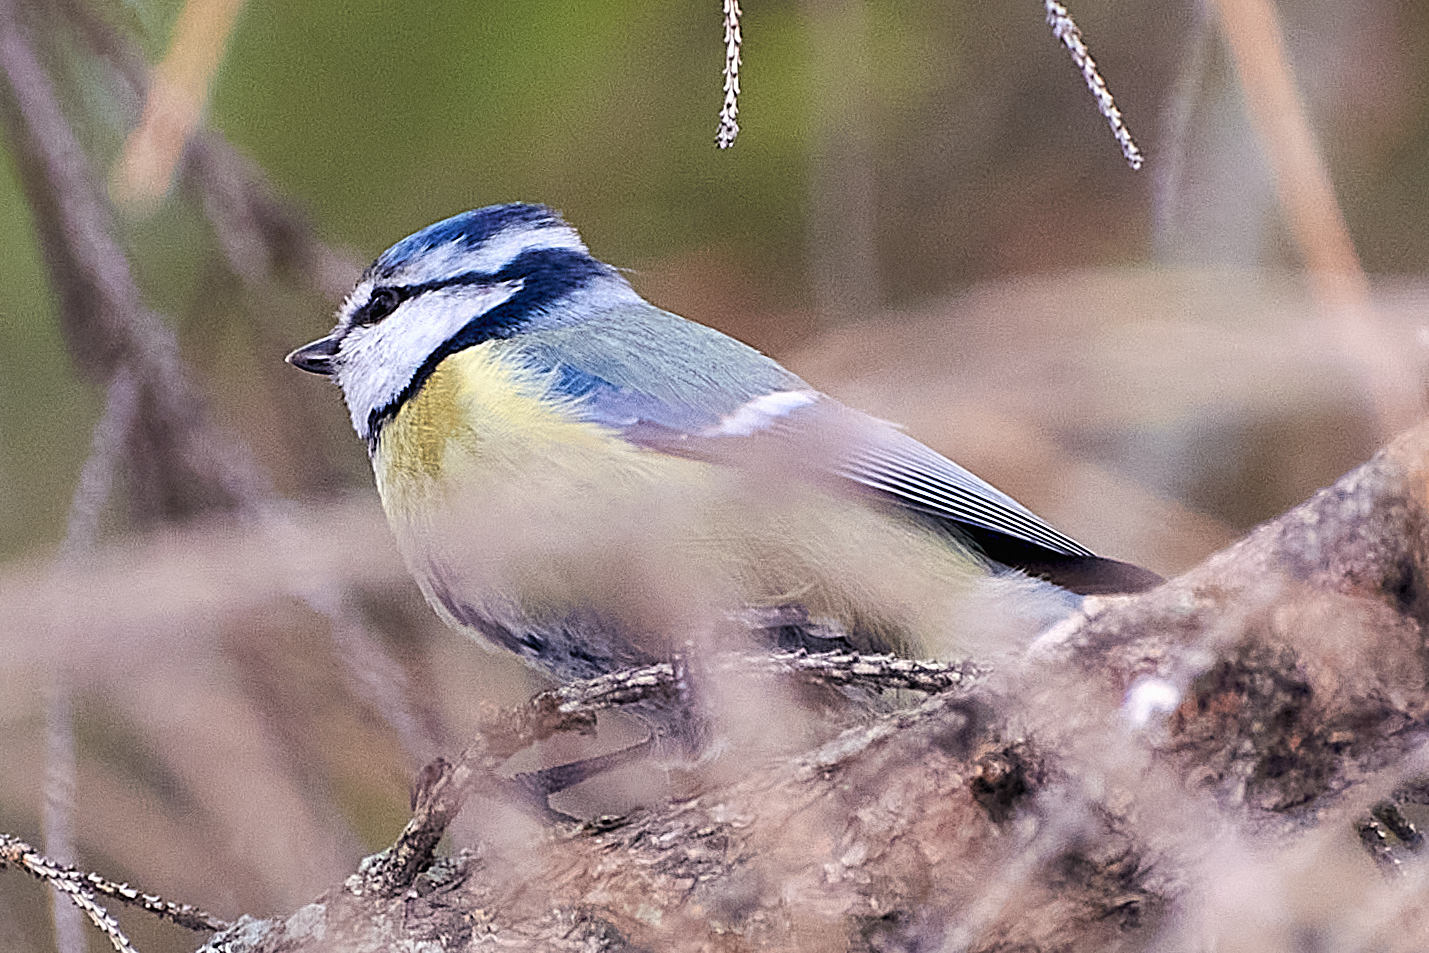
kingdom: Animalia
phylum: Chordata
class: Aves
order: Passeriformes
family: Paridae
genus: Cyanistes
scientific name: Cyanistes caeruleus
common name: Eurasian blue tit
